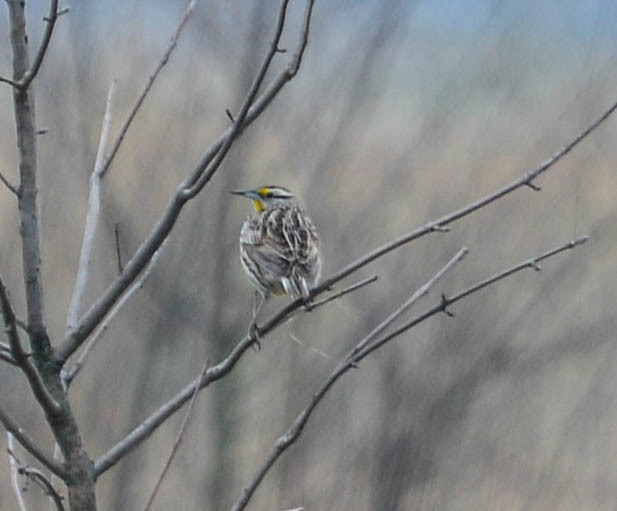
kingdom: Animalia
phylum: Chordata
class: Aves
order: Passeriformes
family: Icteridae
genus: Sturnella
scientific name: Sturnella magna
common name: Eastern meadowlark
